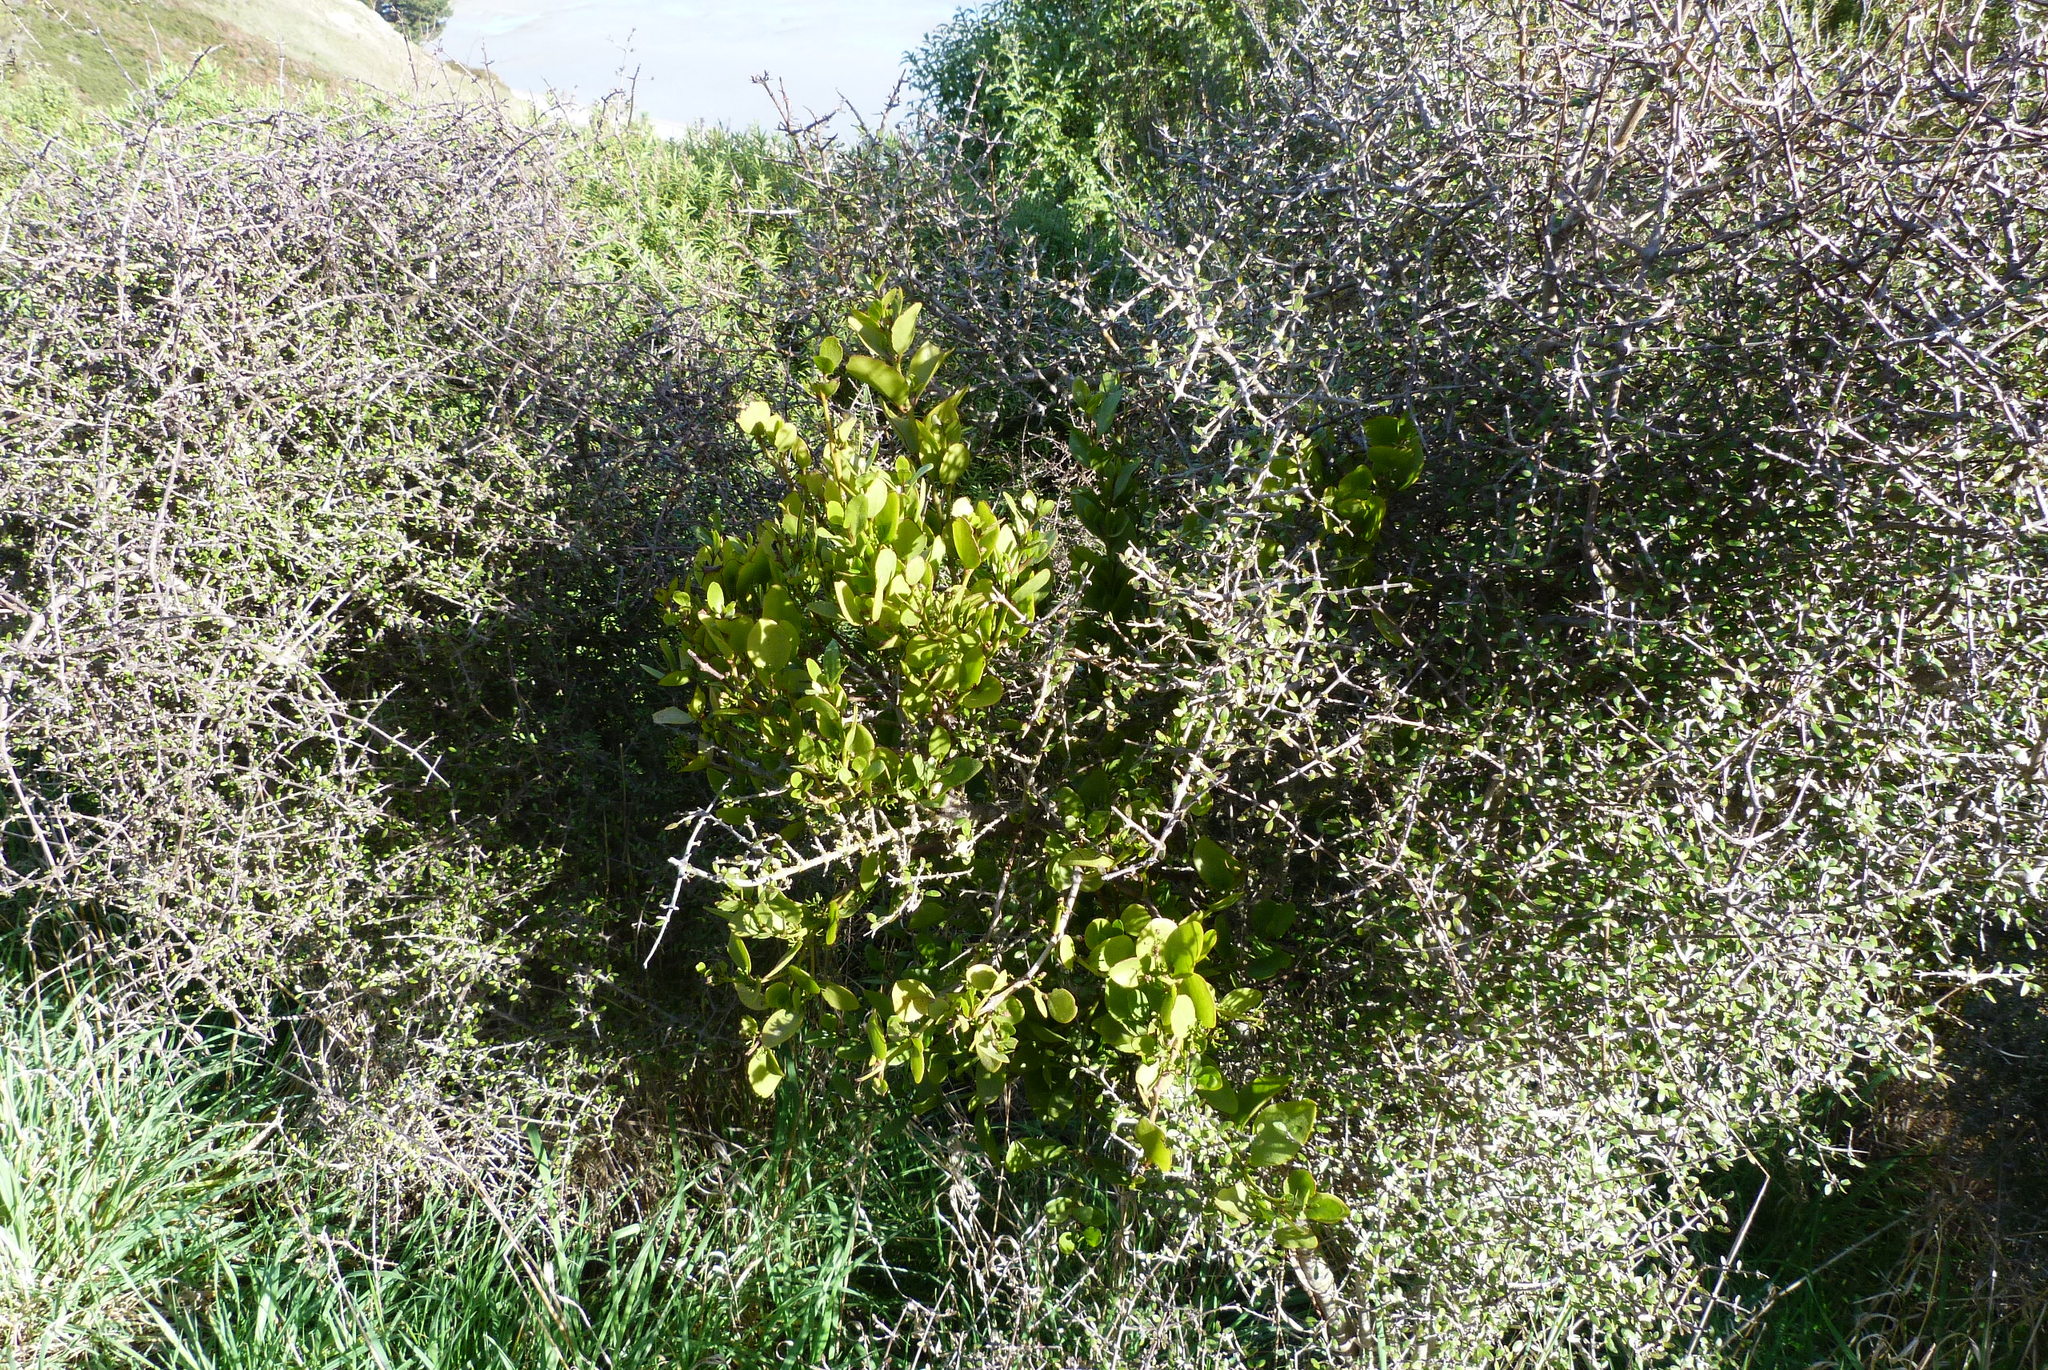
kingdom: Plantae
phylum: Tracheophyta
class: Magnoliopsida
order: Santalales
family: Loranthaceae
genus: Ileostylus
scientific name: Ileostylus micranthus
